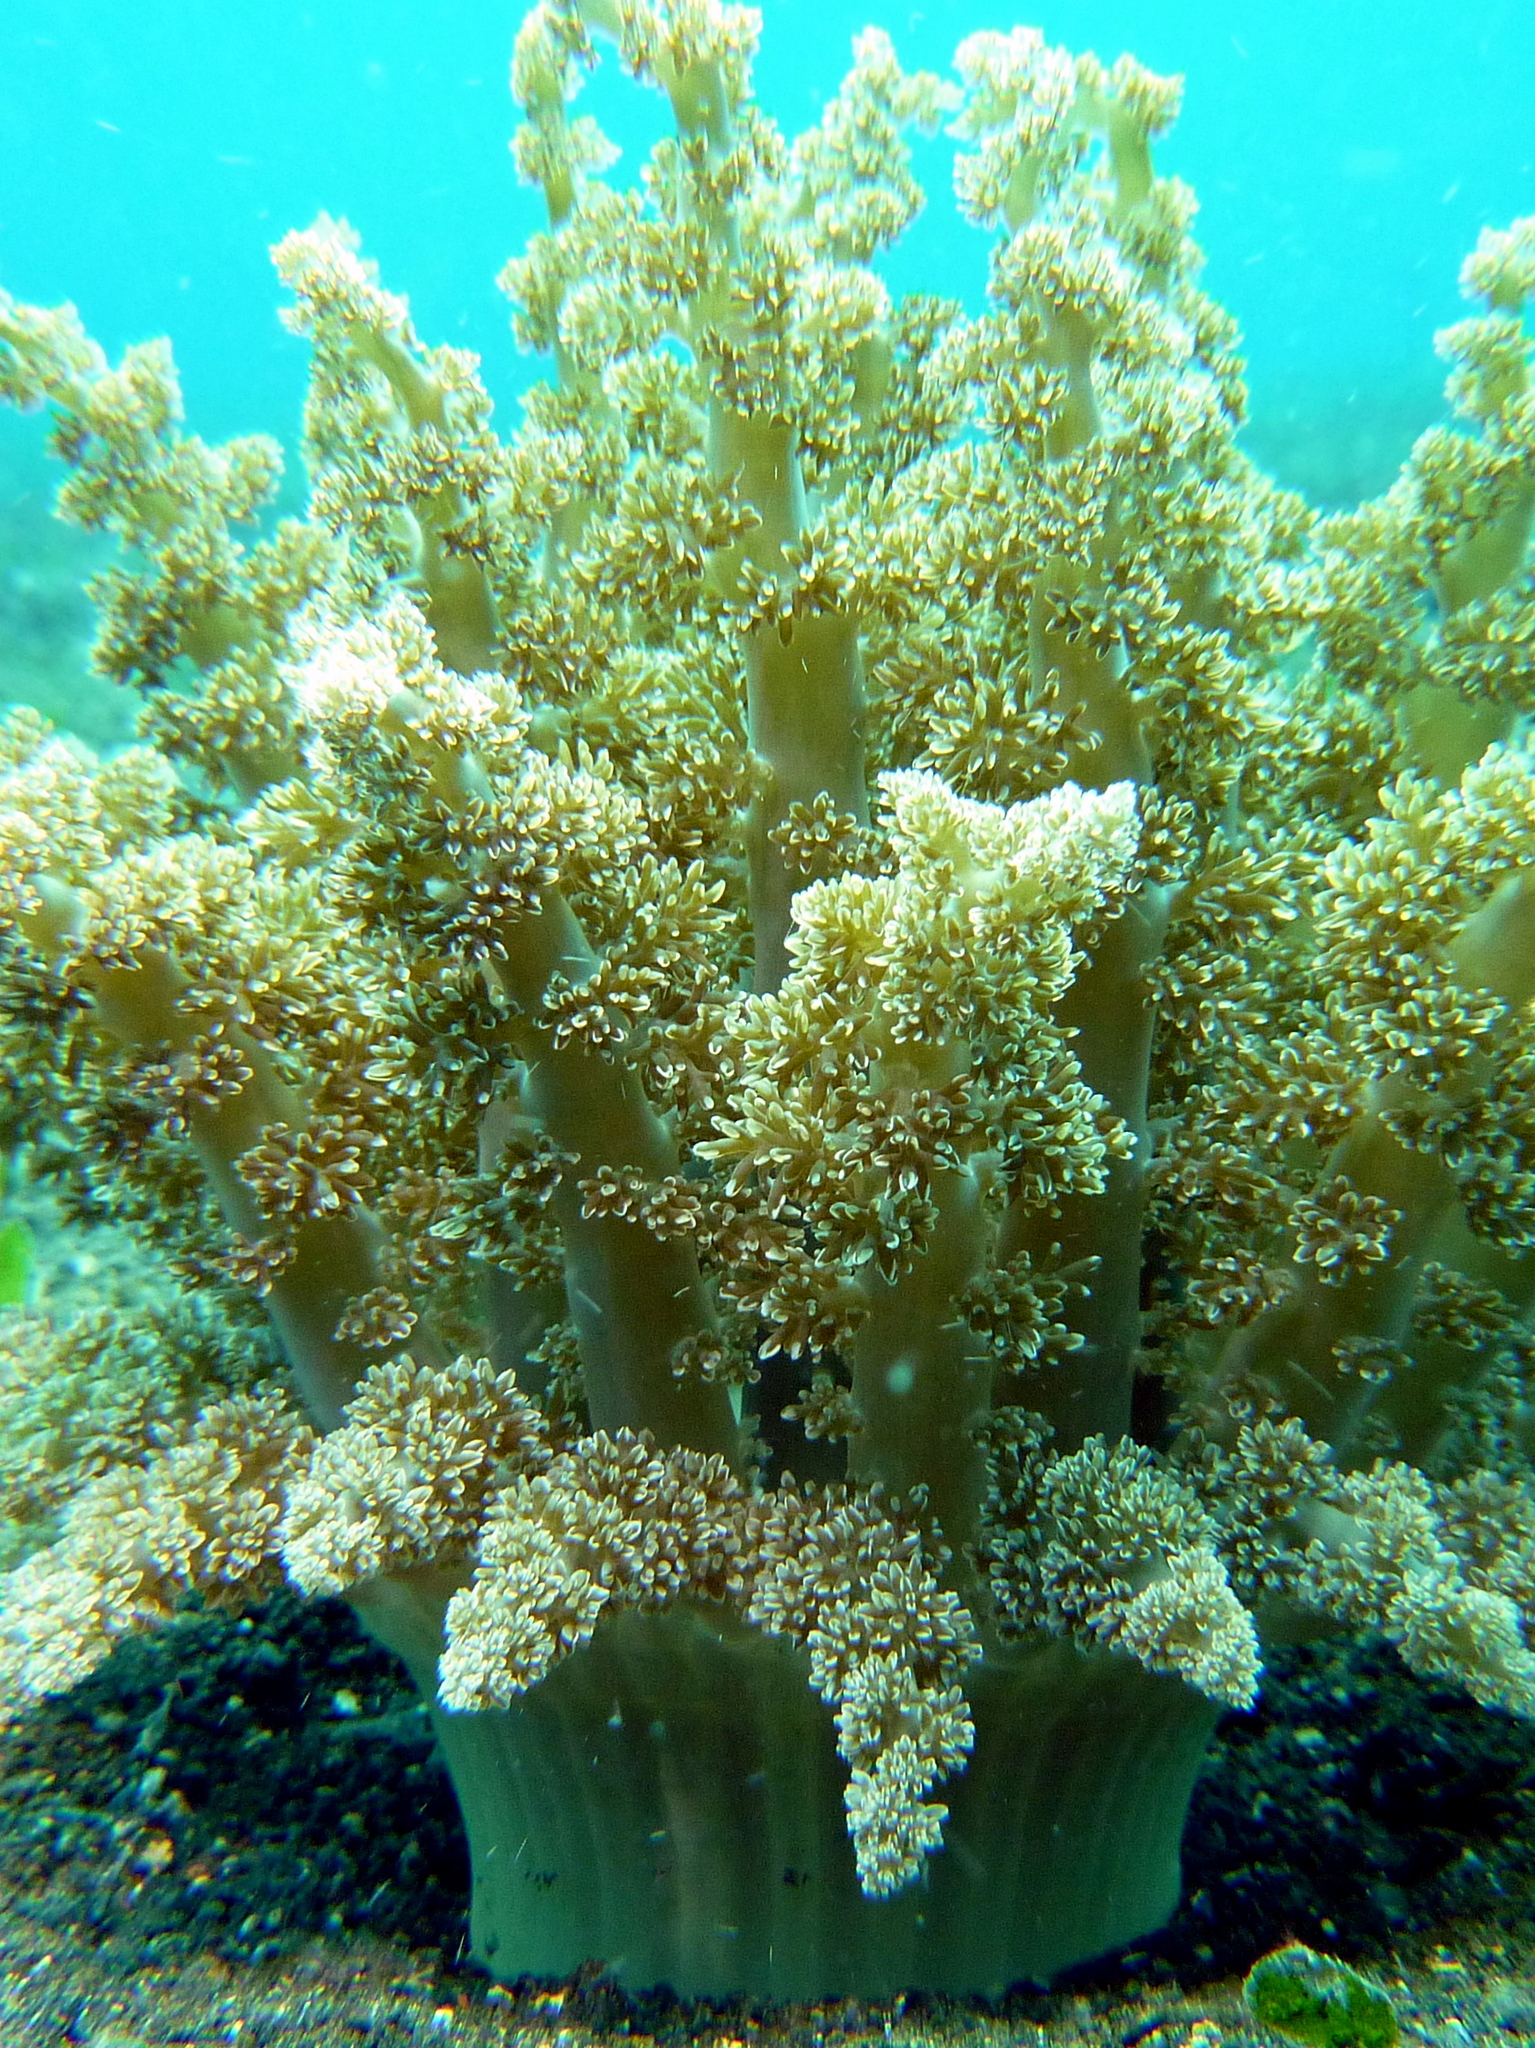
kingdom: Animalia
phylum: Cnidaria
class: Anthozoa
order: Actiniaria
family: Actinodendridae
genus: Actinodendron
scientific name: Actinodendron arboreum
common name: Tree anemone
